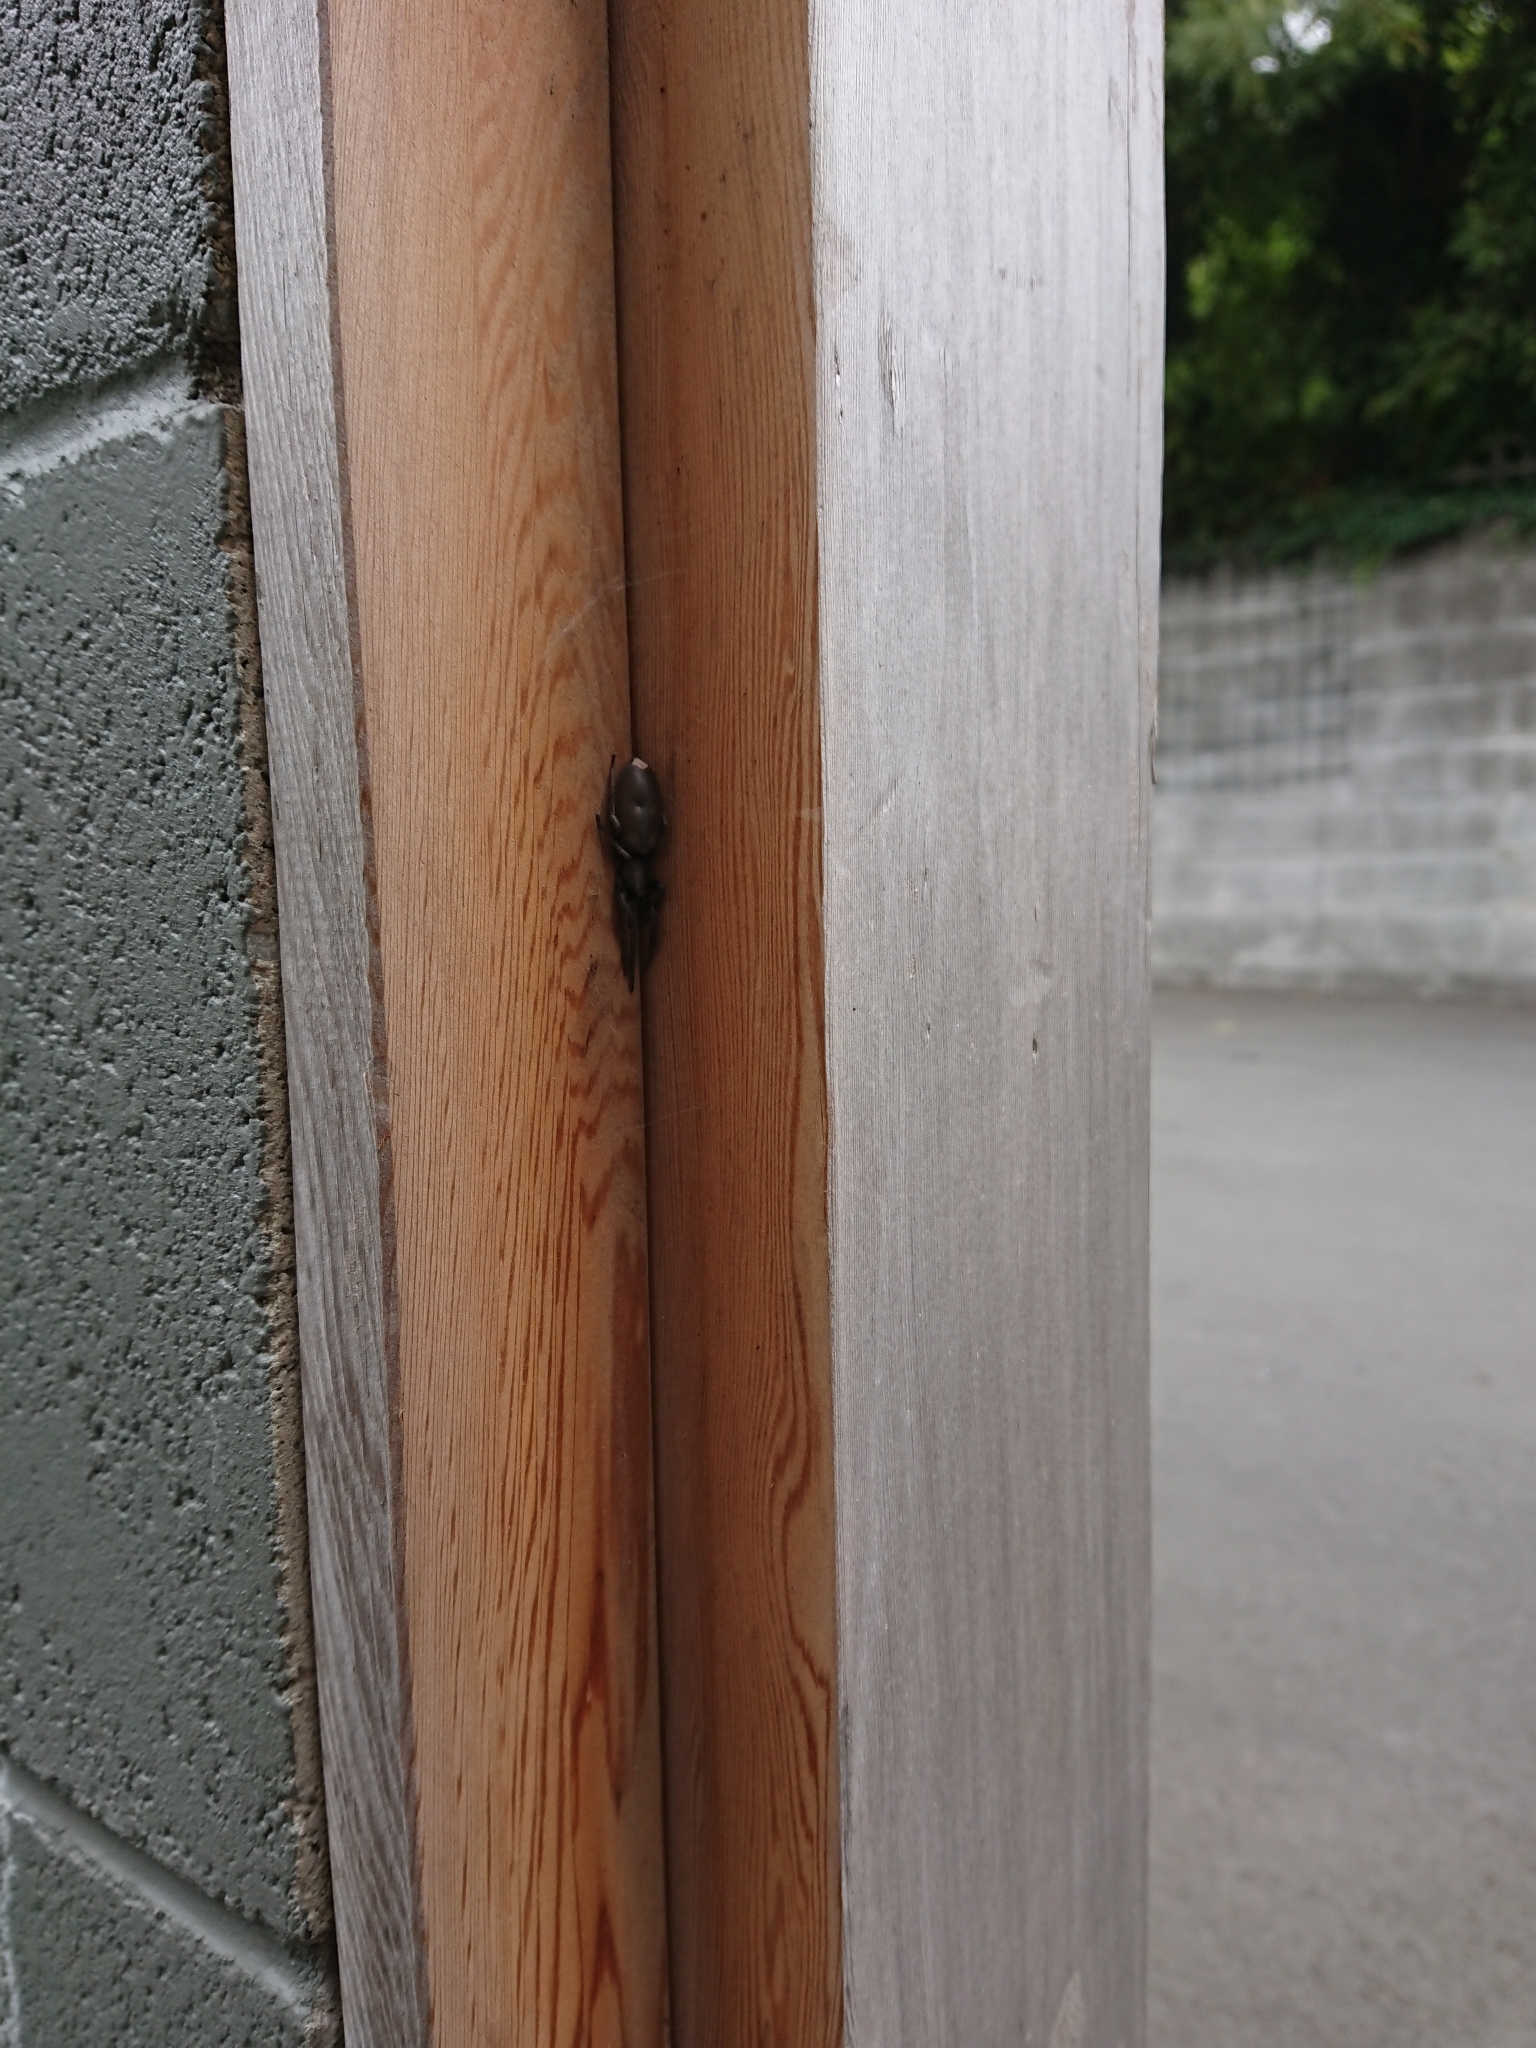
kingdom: Animalia
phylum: Arthropoda
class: Arachnida
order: Araneae
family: Lamponidae
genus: Lampona
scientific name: Lampona cylindrata
